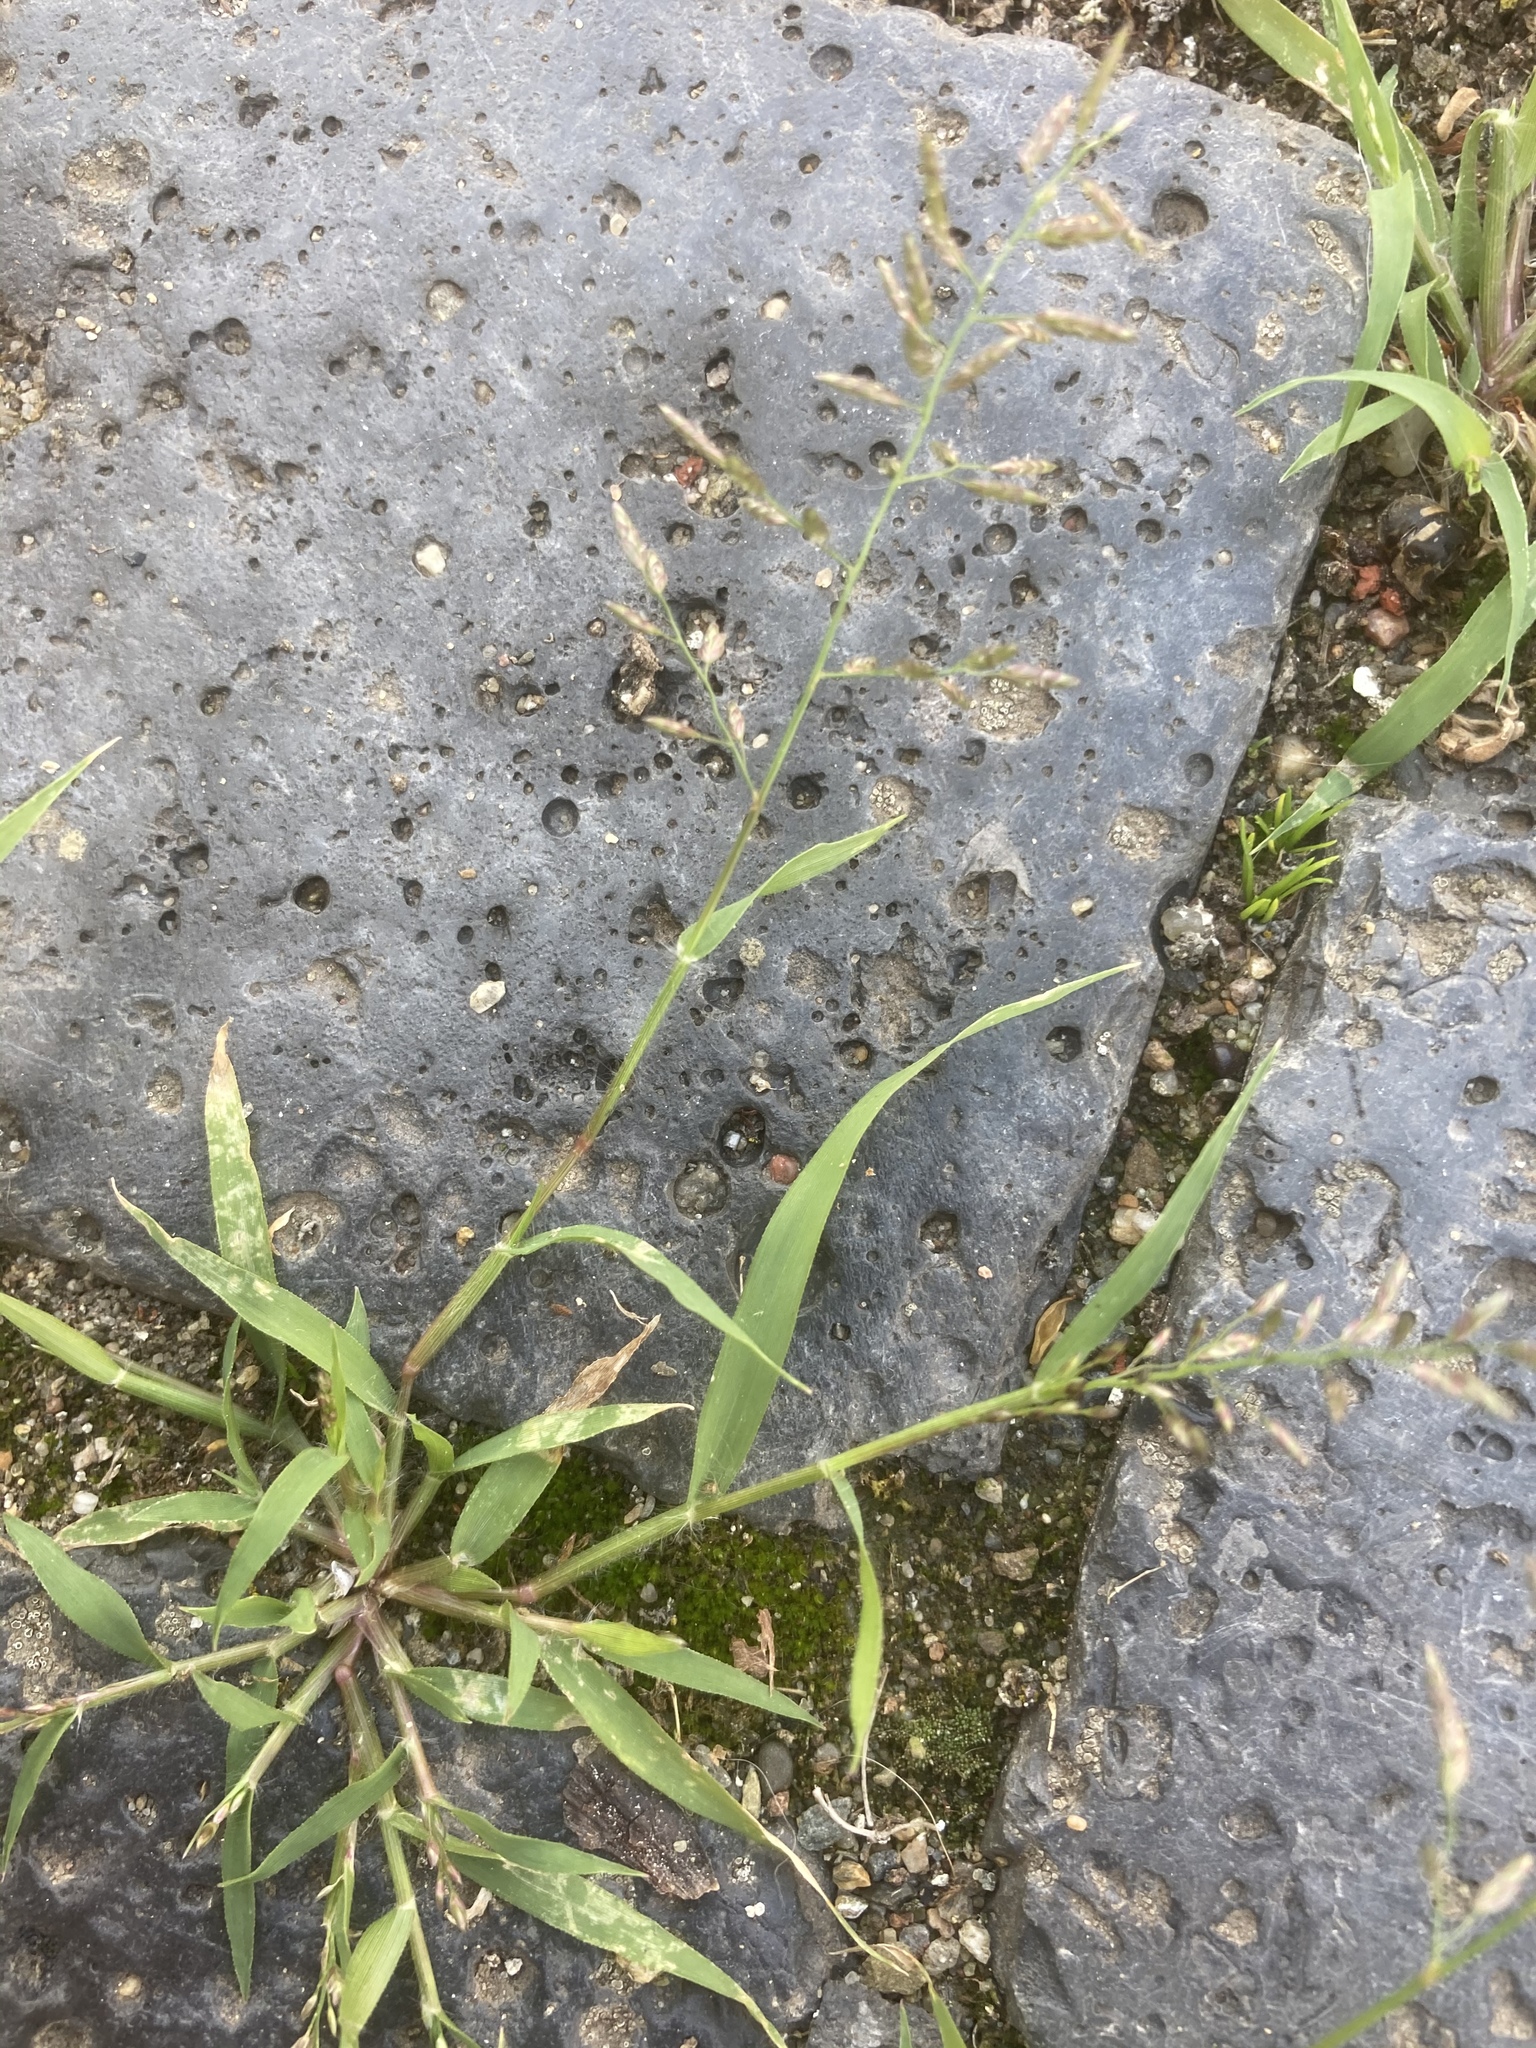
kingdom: Plantae
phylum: Tracheophyta
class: Liliopsida
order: Poales
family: Poaceae
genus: Eragrostis
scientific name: Eragrostis minor
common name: Small love-grass
